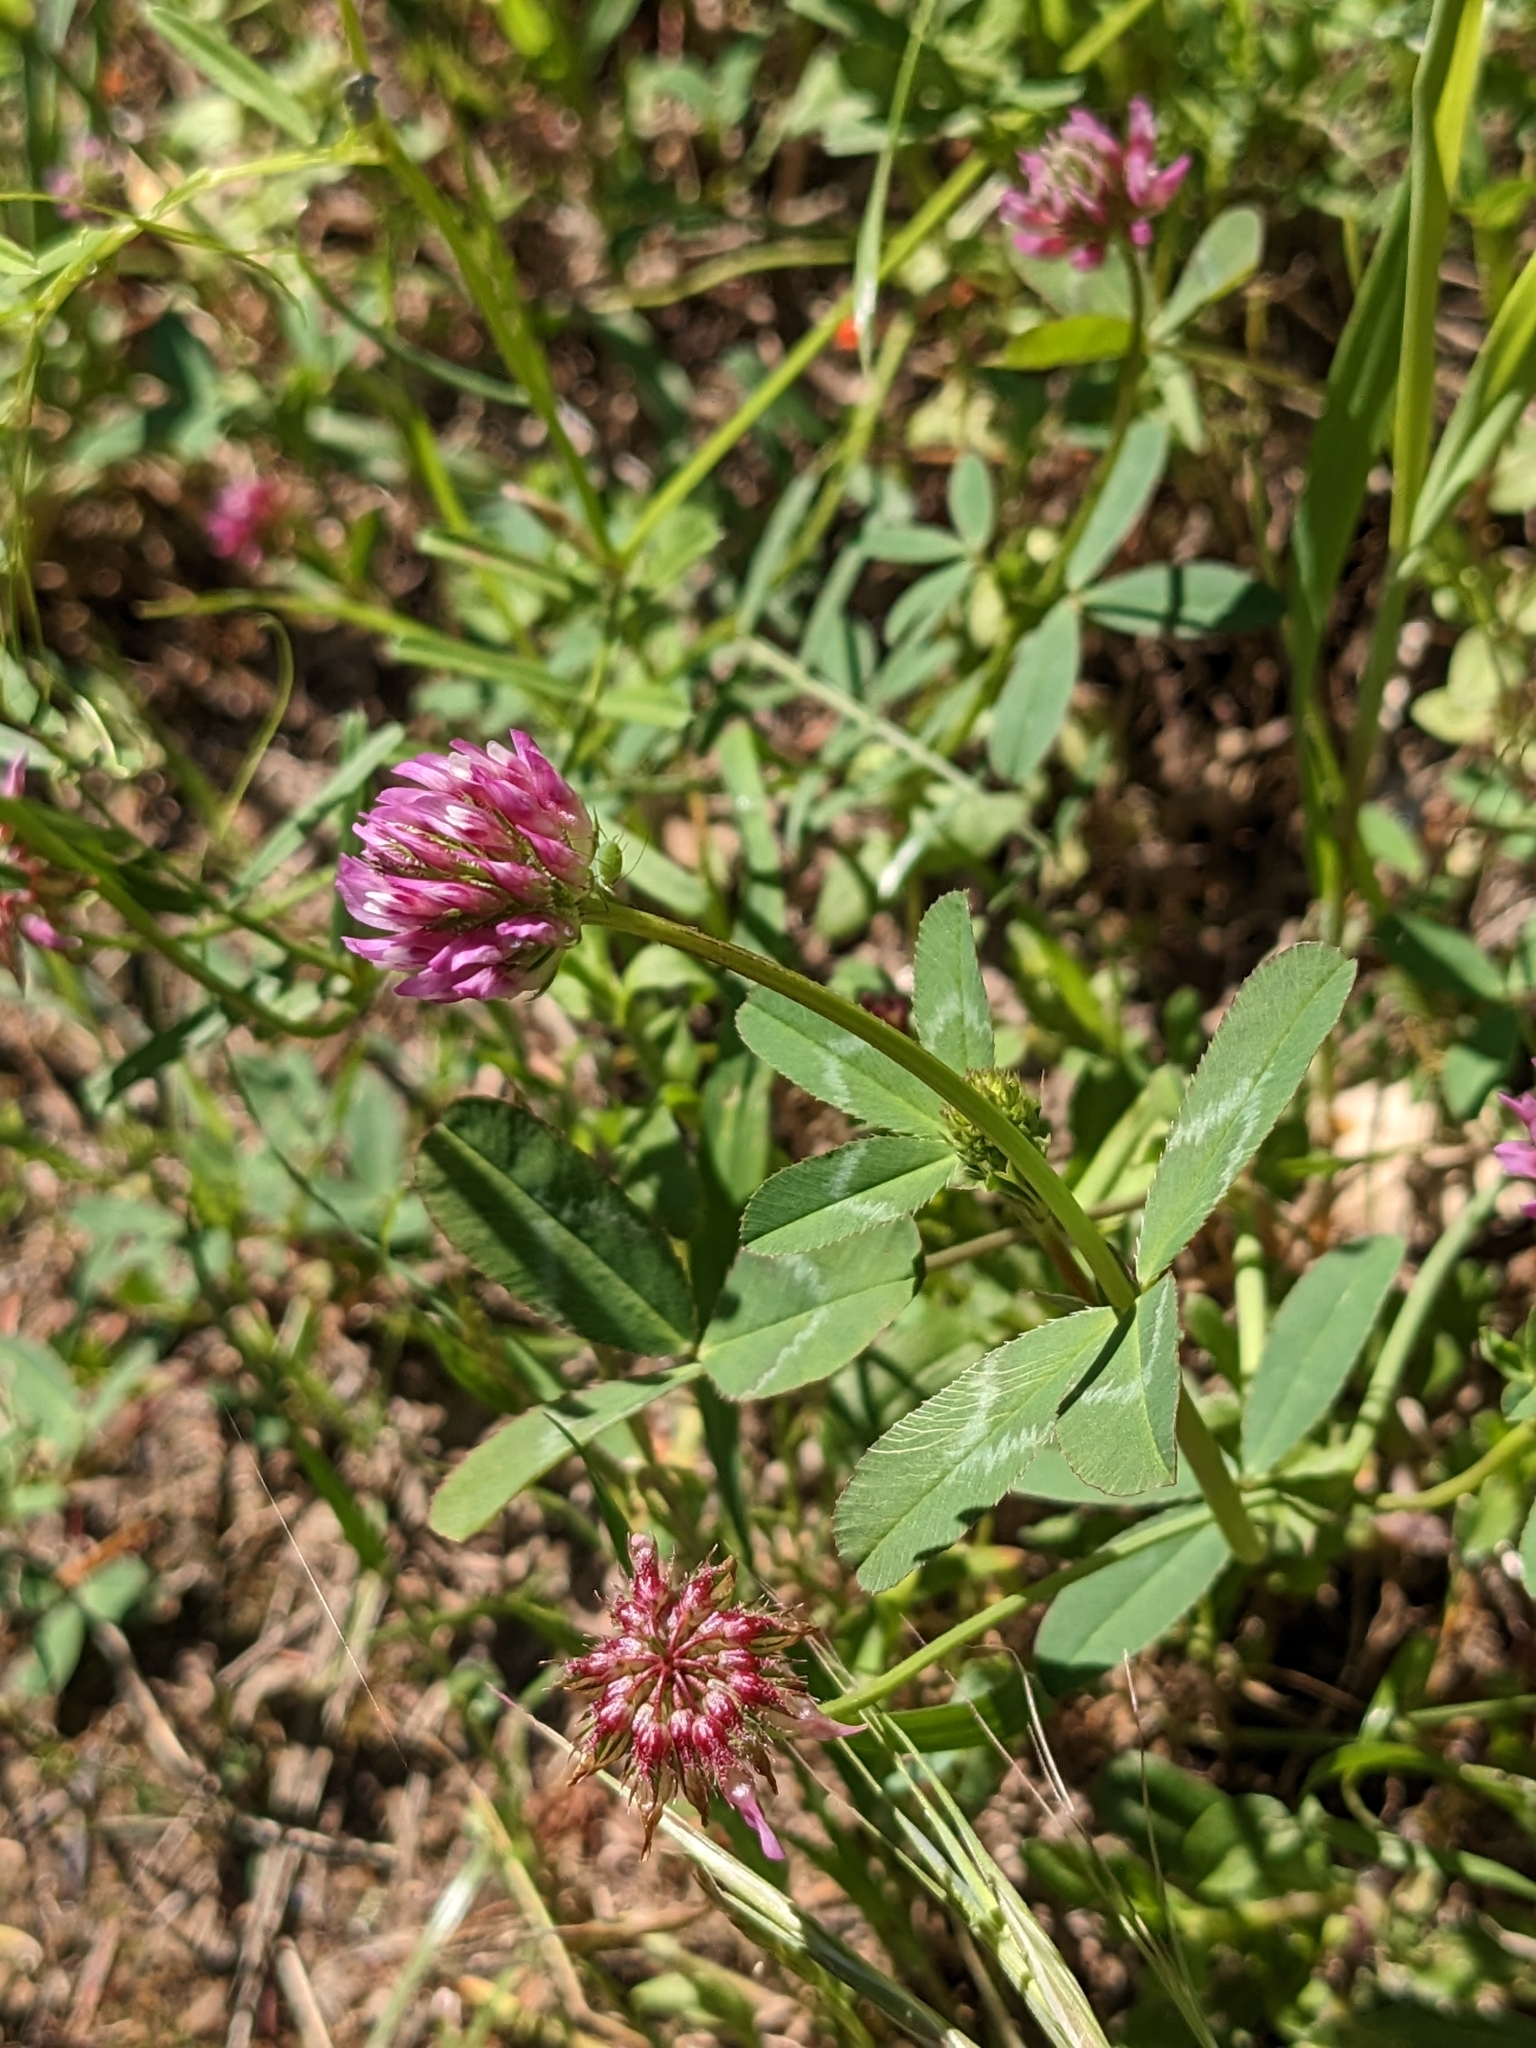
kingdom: Plantae
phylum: Tracheophyta
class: Magnoliopsida
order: Fabales
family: Fabaceae
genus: Trifolium
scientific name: Trifolium ciliolatum
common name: Foothill clover
